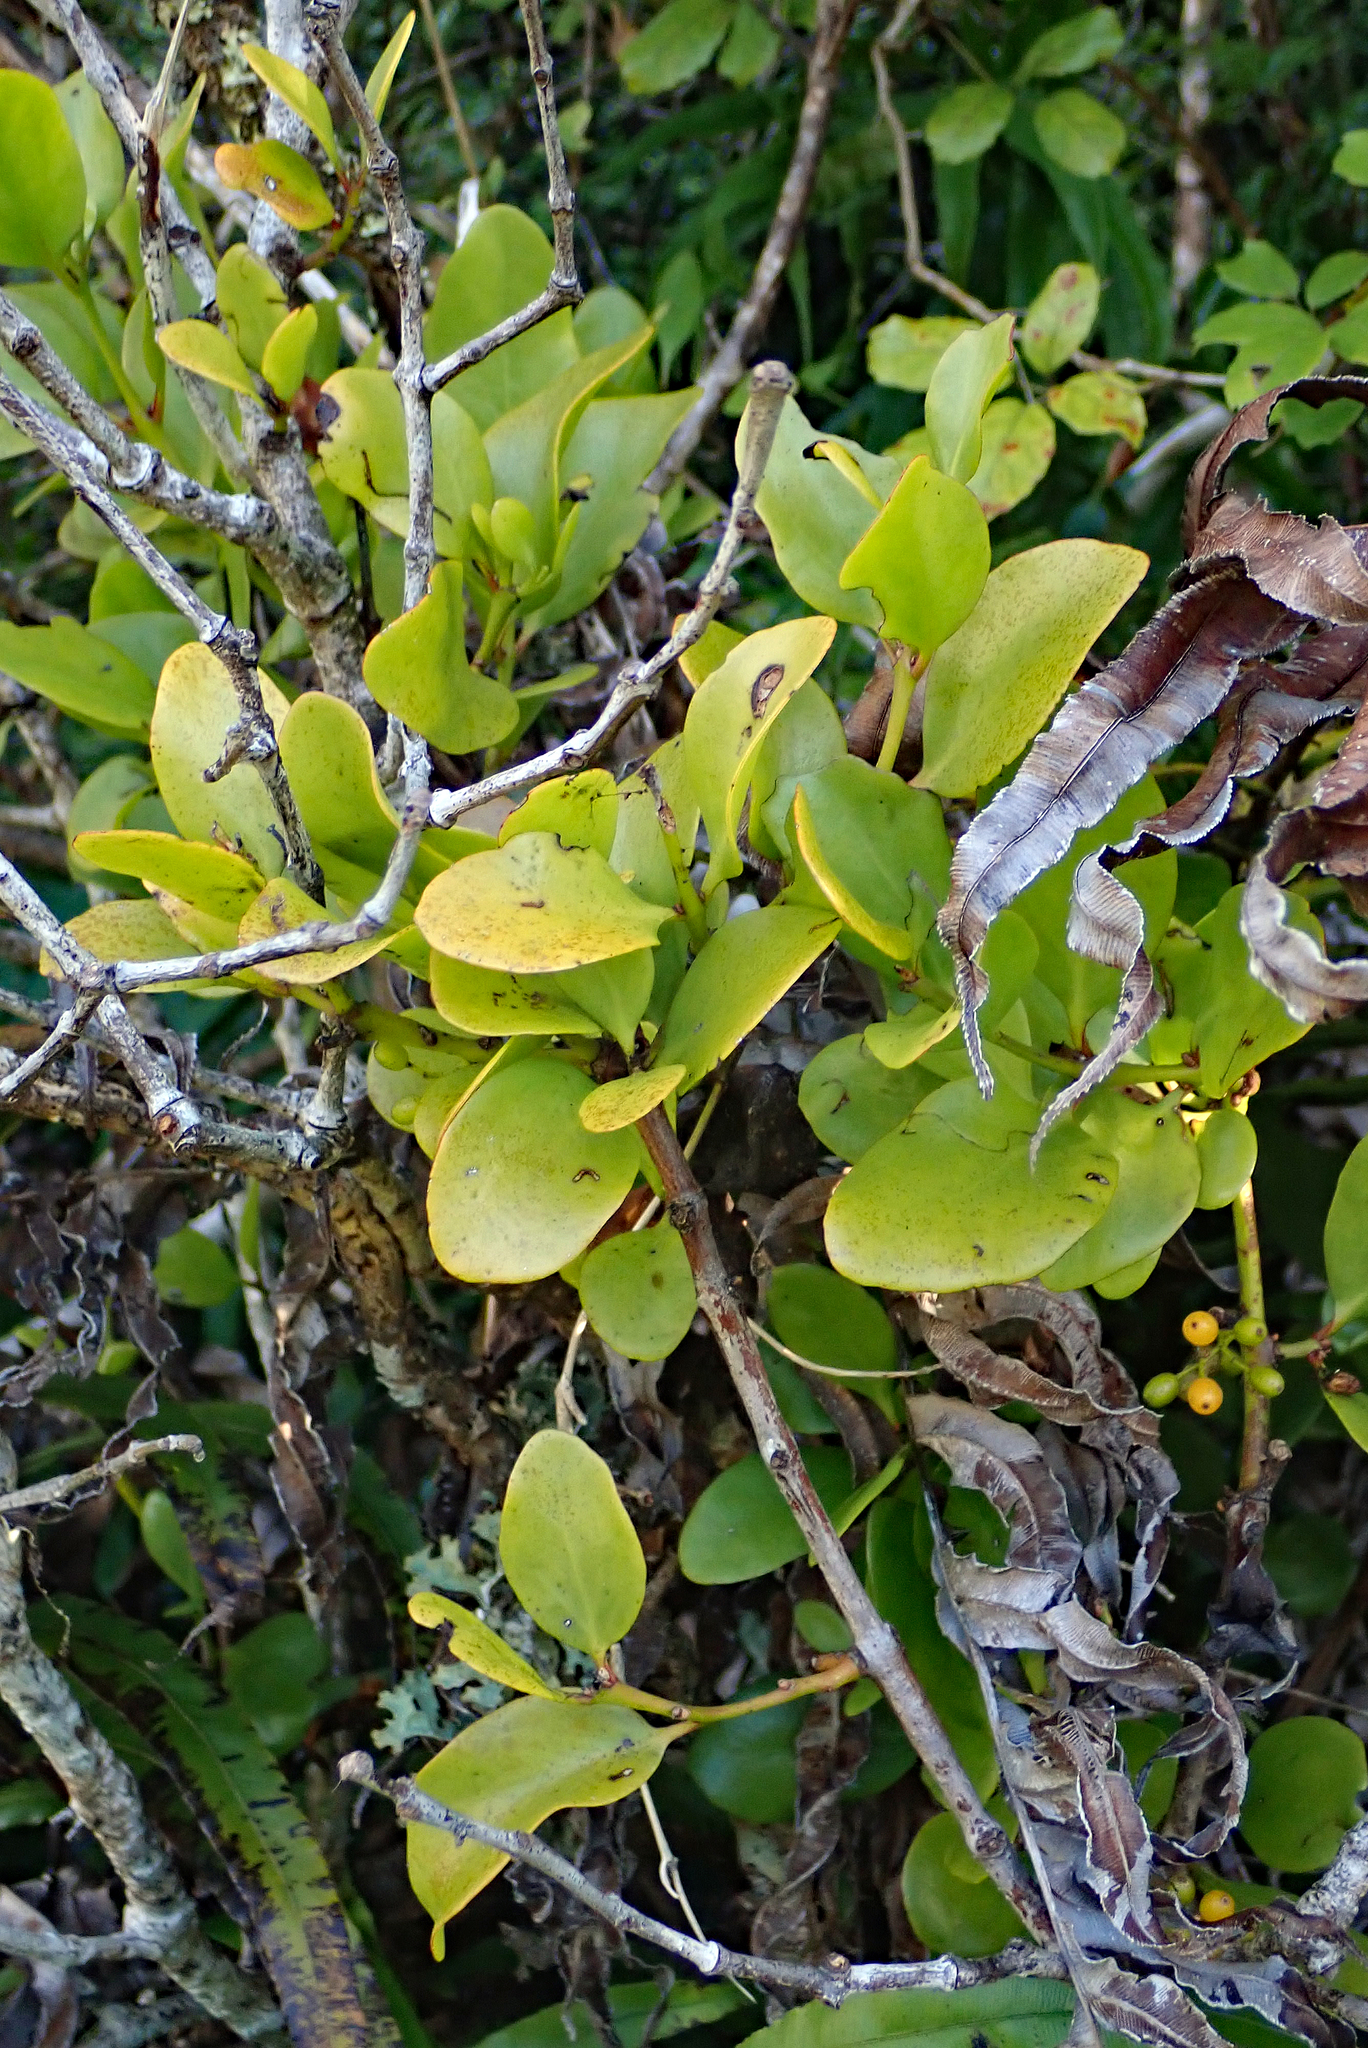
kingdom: Plantae
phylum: Tracheophyta
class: Magnoliopsida
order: Santalales
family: Loranthaceae
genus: Ileostylus
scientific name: Ileostylus micranthus
